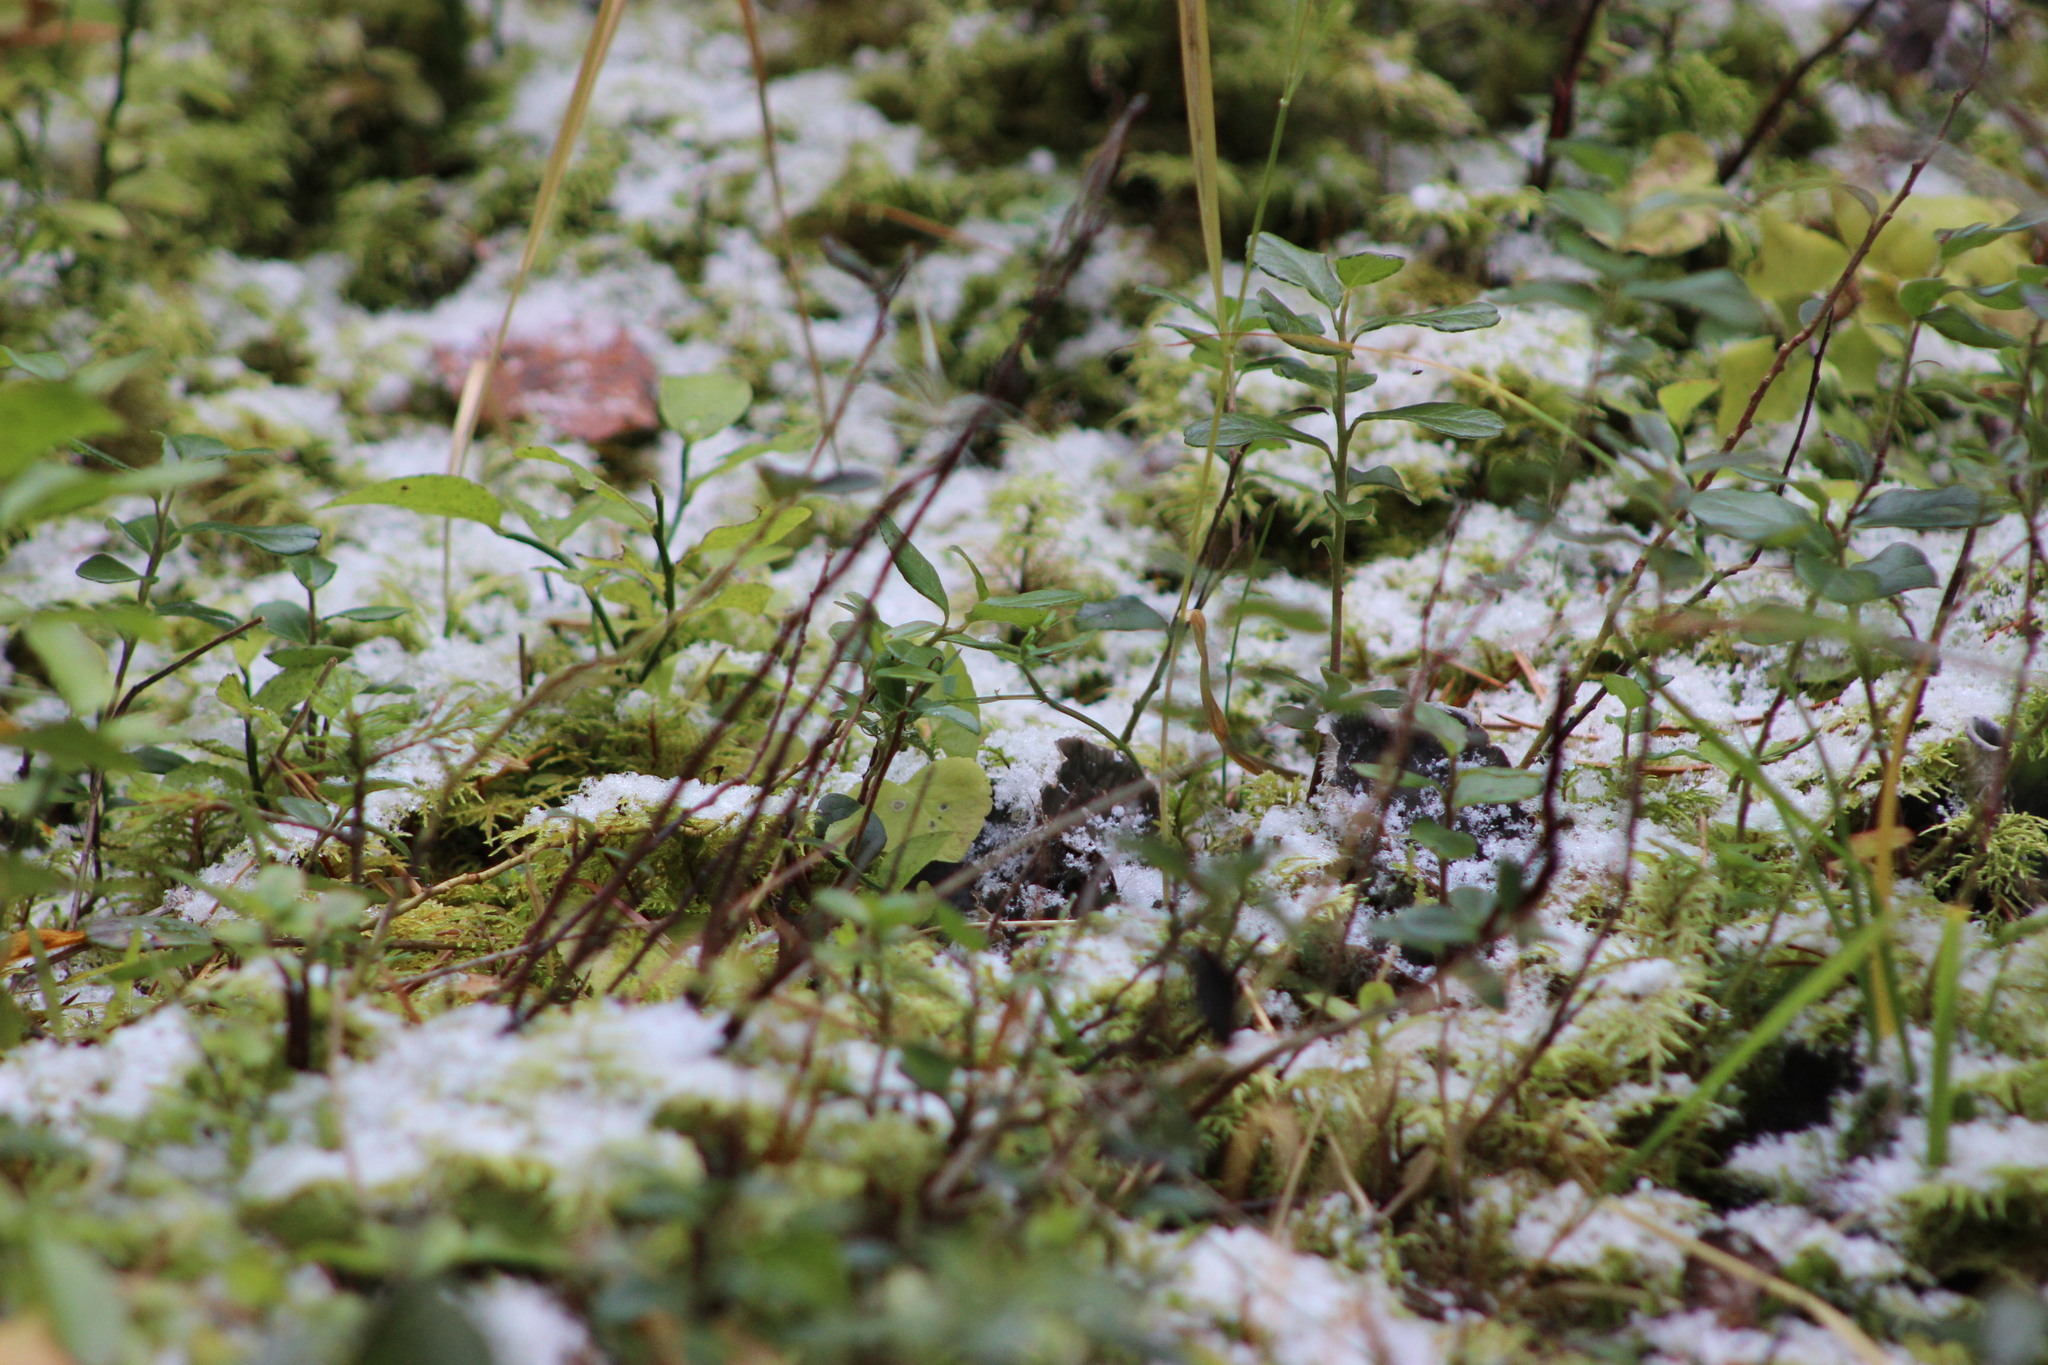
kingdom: Plantae
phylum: Tracheophyta
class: Magnoliopsida
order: Ericales
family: Ericaceae
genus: Vaccinium
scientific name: Vaccinium vitis-idaea
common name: Cowberry
